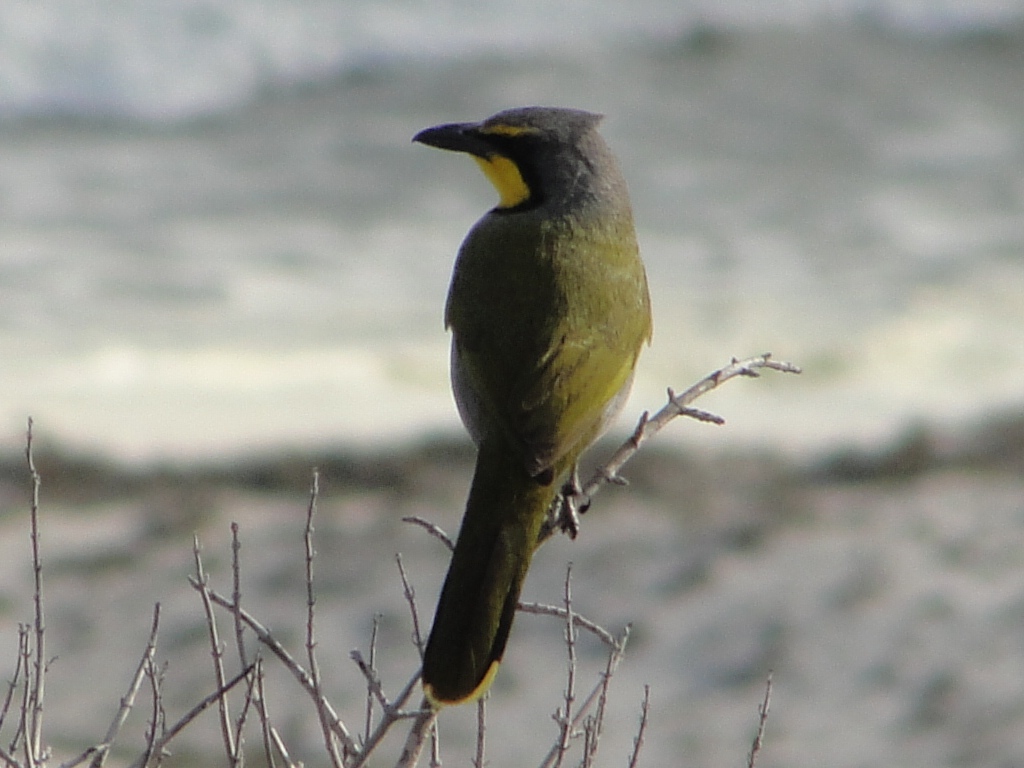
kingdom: Animalia
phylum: Chordata
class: Aves
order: Passeriformes
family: Malaconotidae
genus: Telophorus
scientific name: Telophorus zeylonus
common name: Bokmakierie
